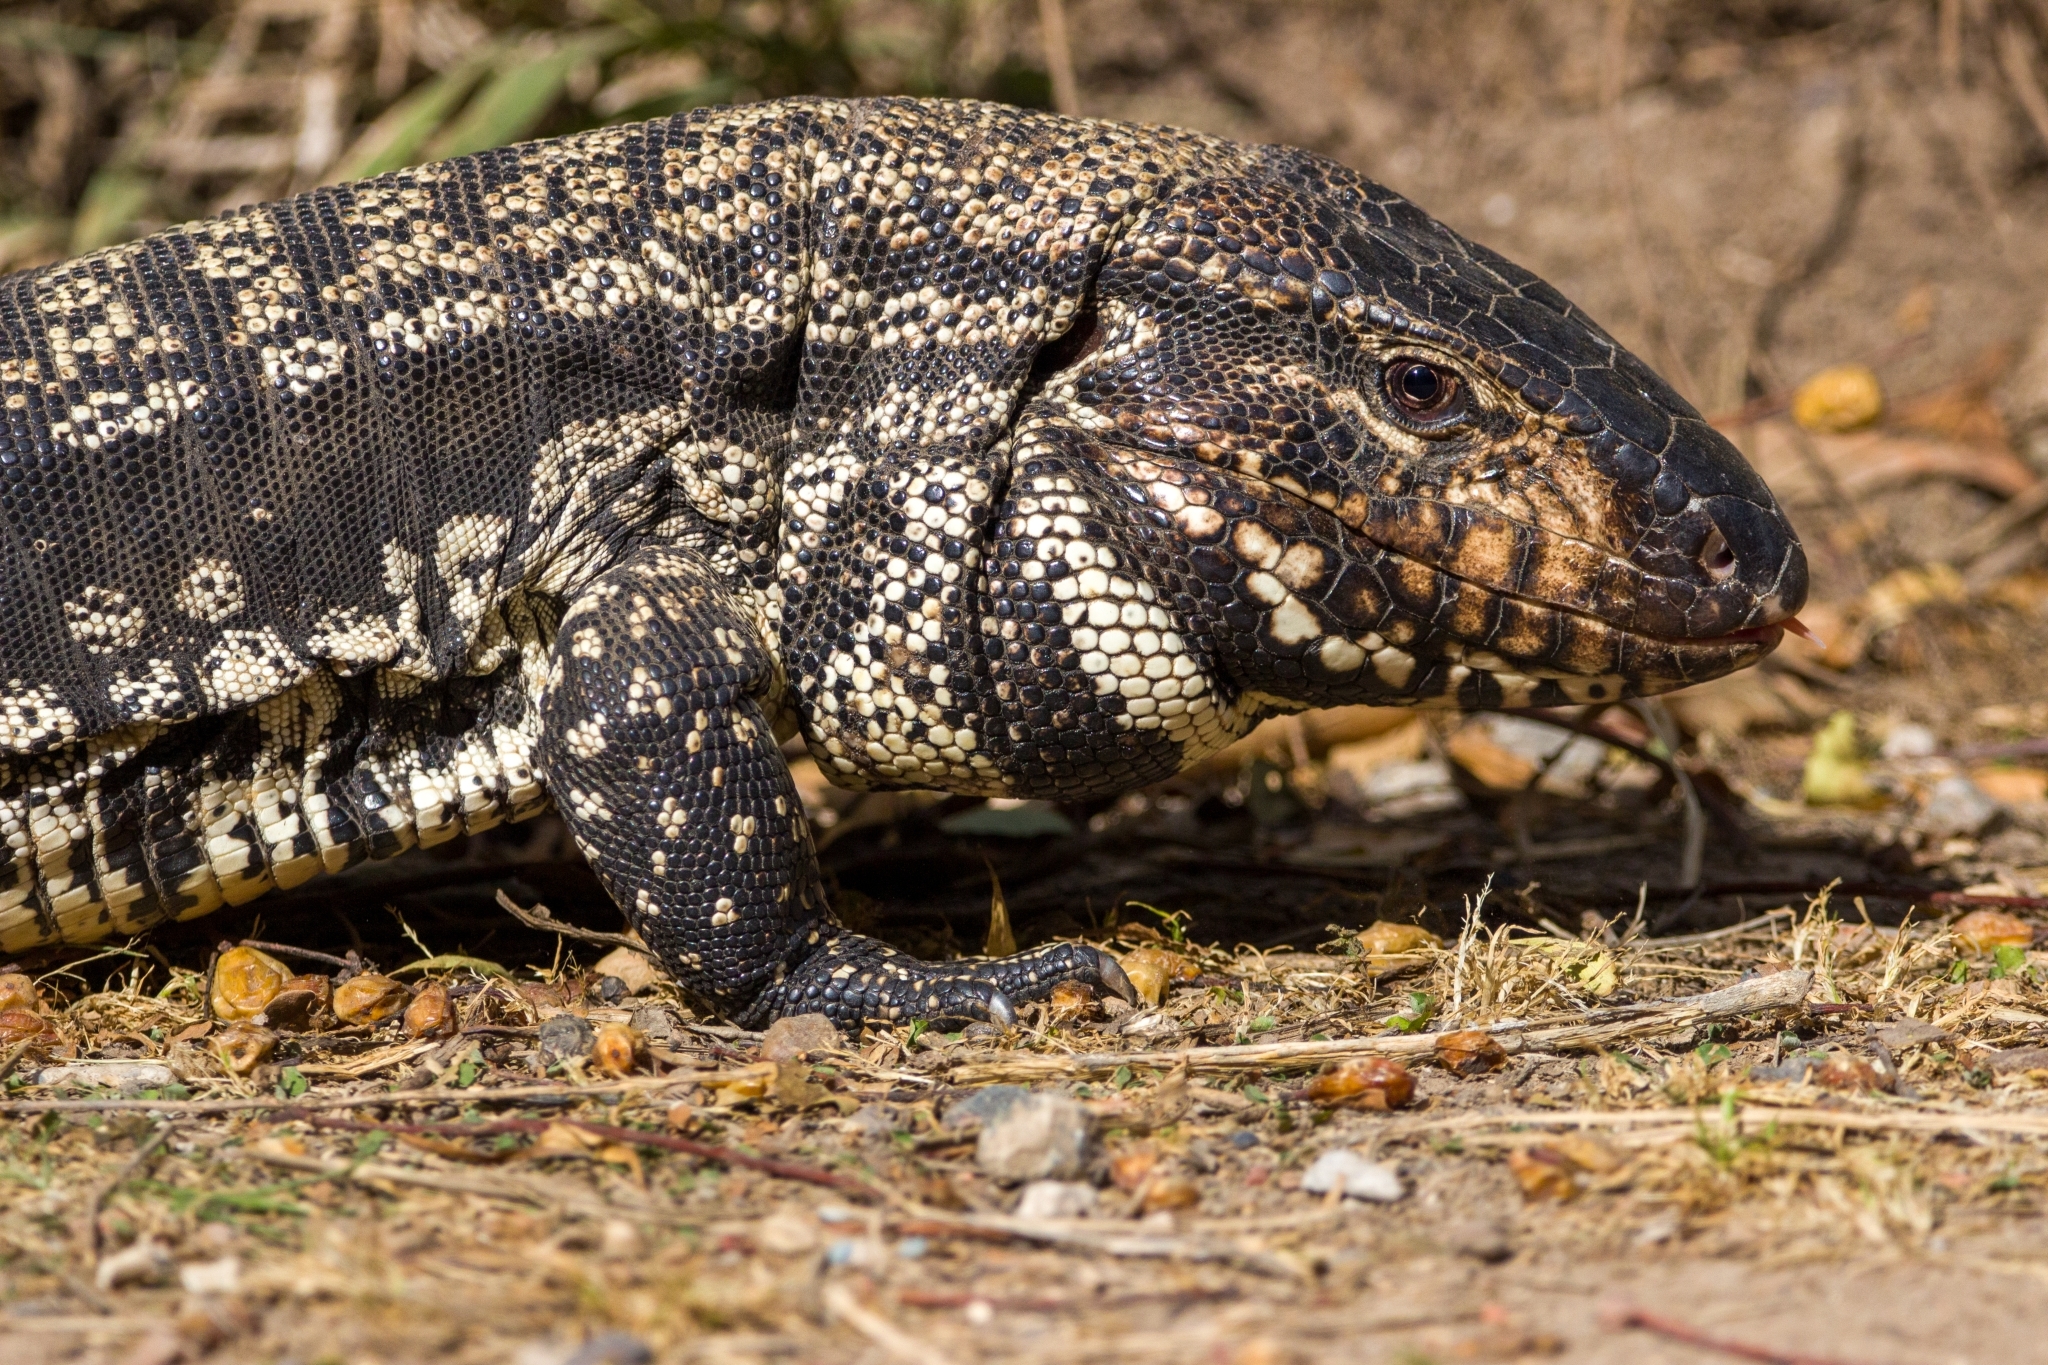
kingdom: Animalia
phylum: Chordata
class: Squamata
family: Teiidae
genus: Salvator
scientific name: Salvator merianae
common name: Argentine black and white tegu
